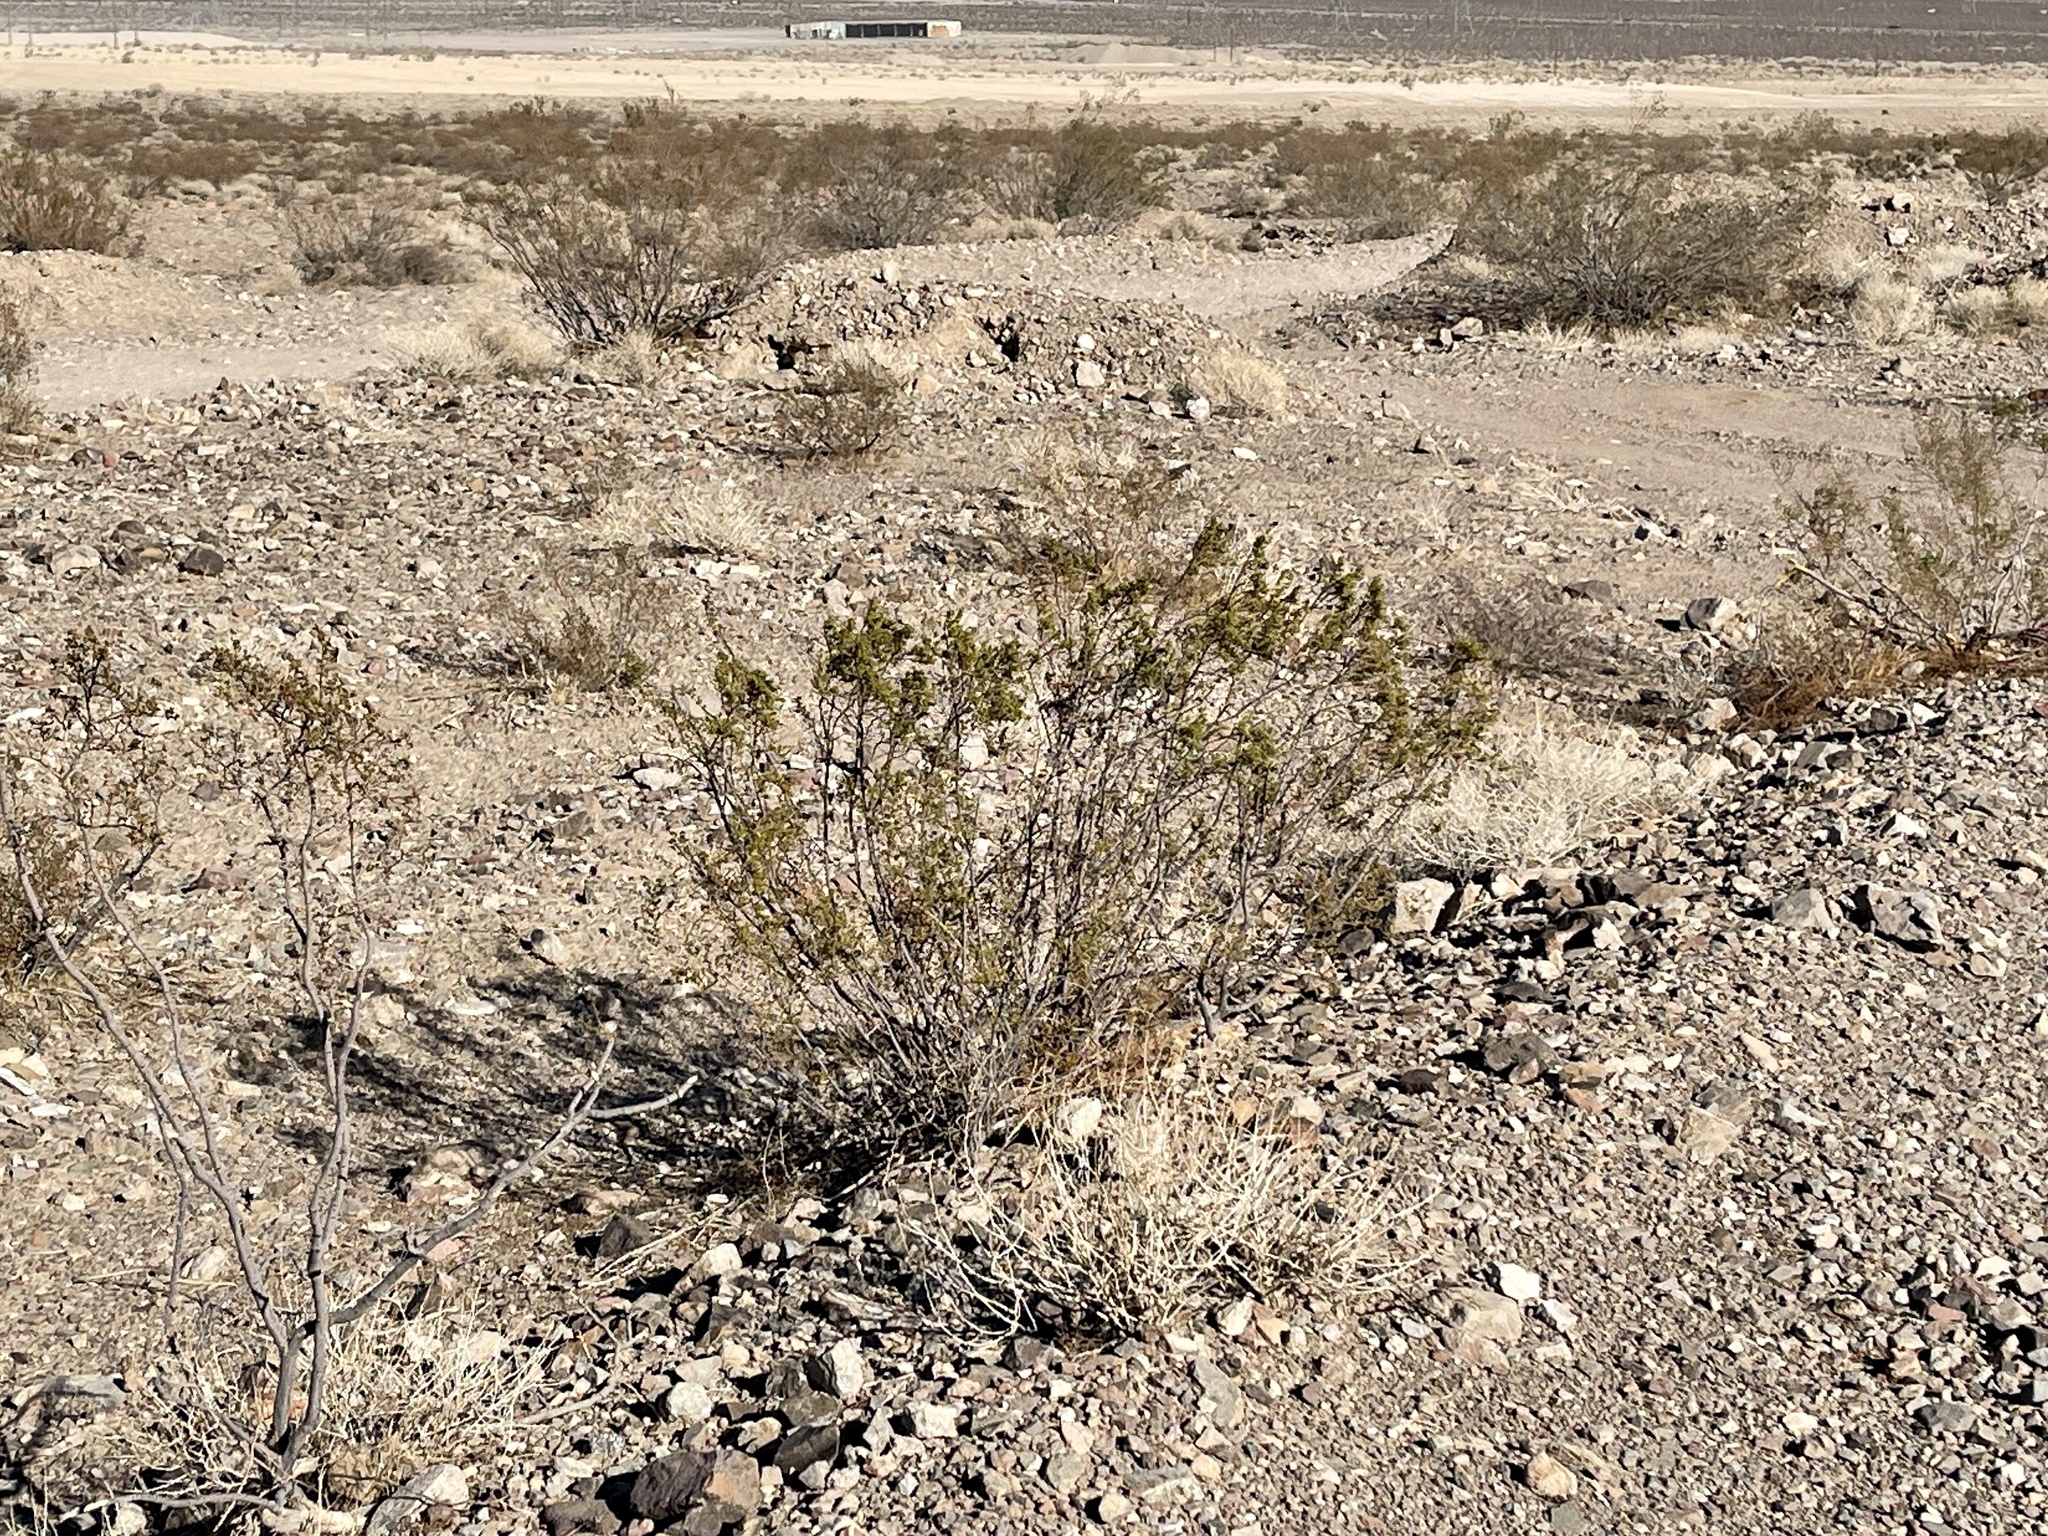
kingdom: Plantae
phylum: Tracheophyta
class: Magnoliopsida
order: Zygophyllales
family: Zygophyllaceae
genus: Larrea
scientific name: Larrea tridentata
